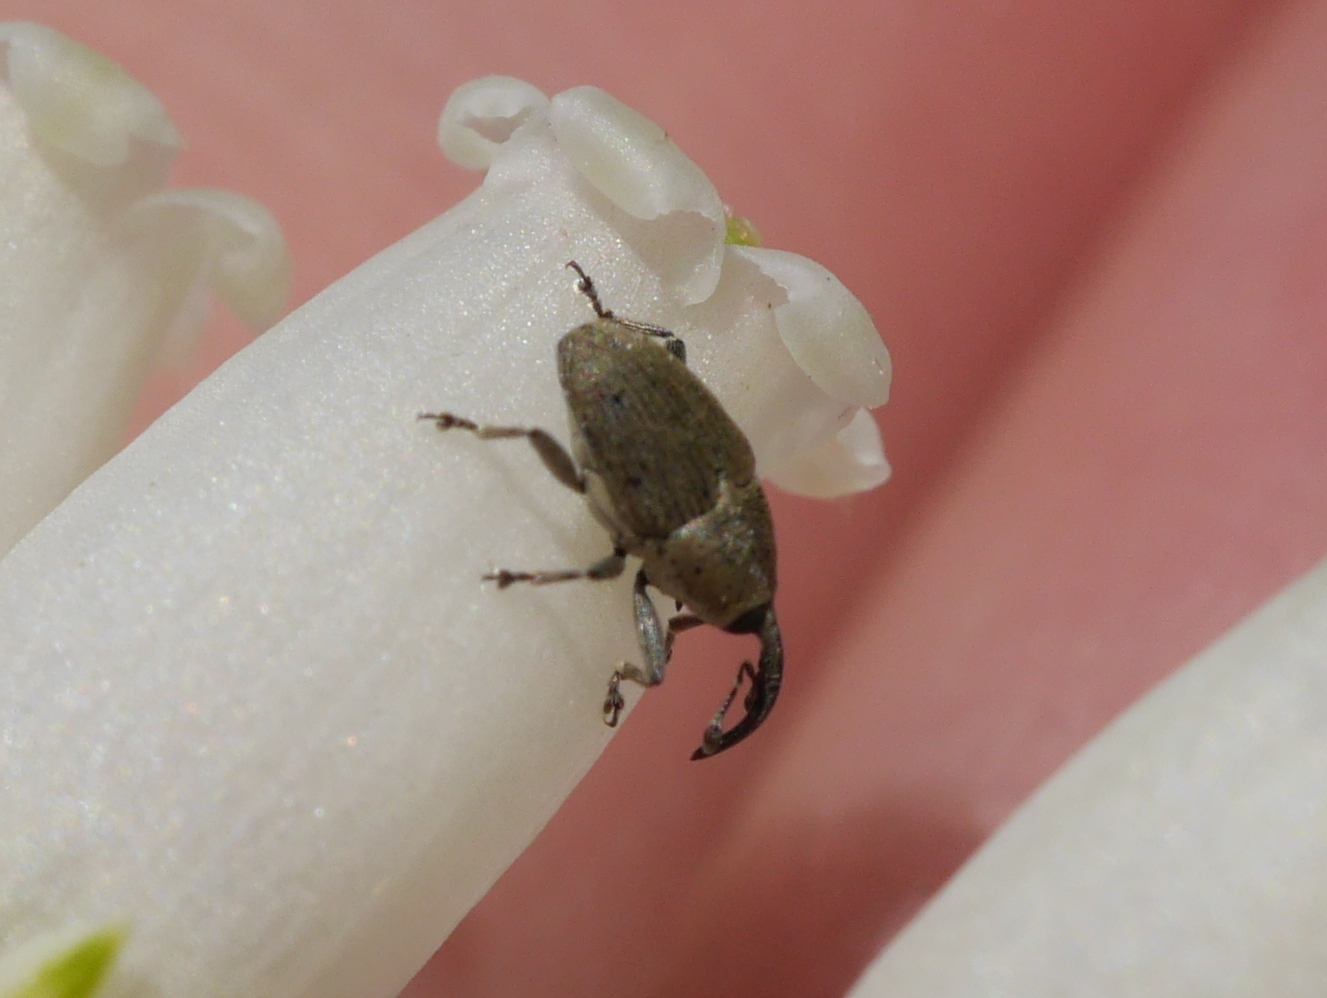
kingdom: Animalia
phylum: Arthropoda
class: Insecta
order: Coleoptera
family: Curculionidae
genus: Geraeus
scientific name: Geraeus picumnus
